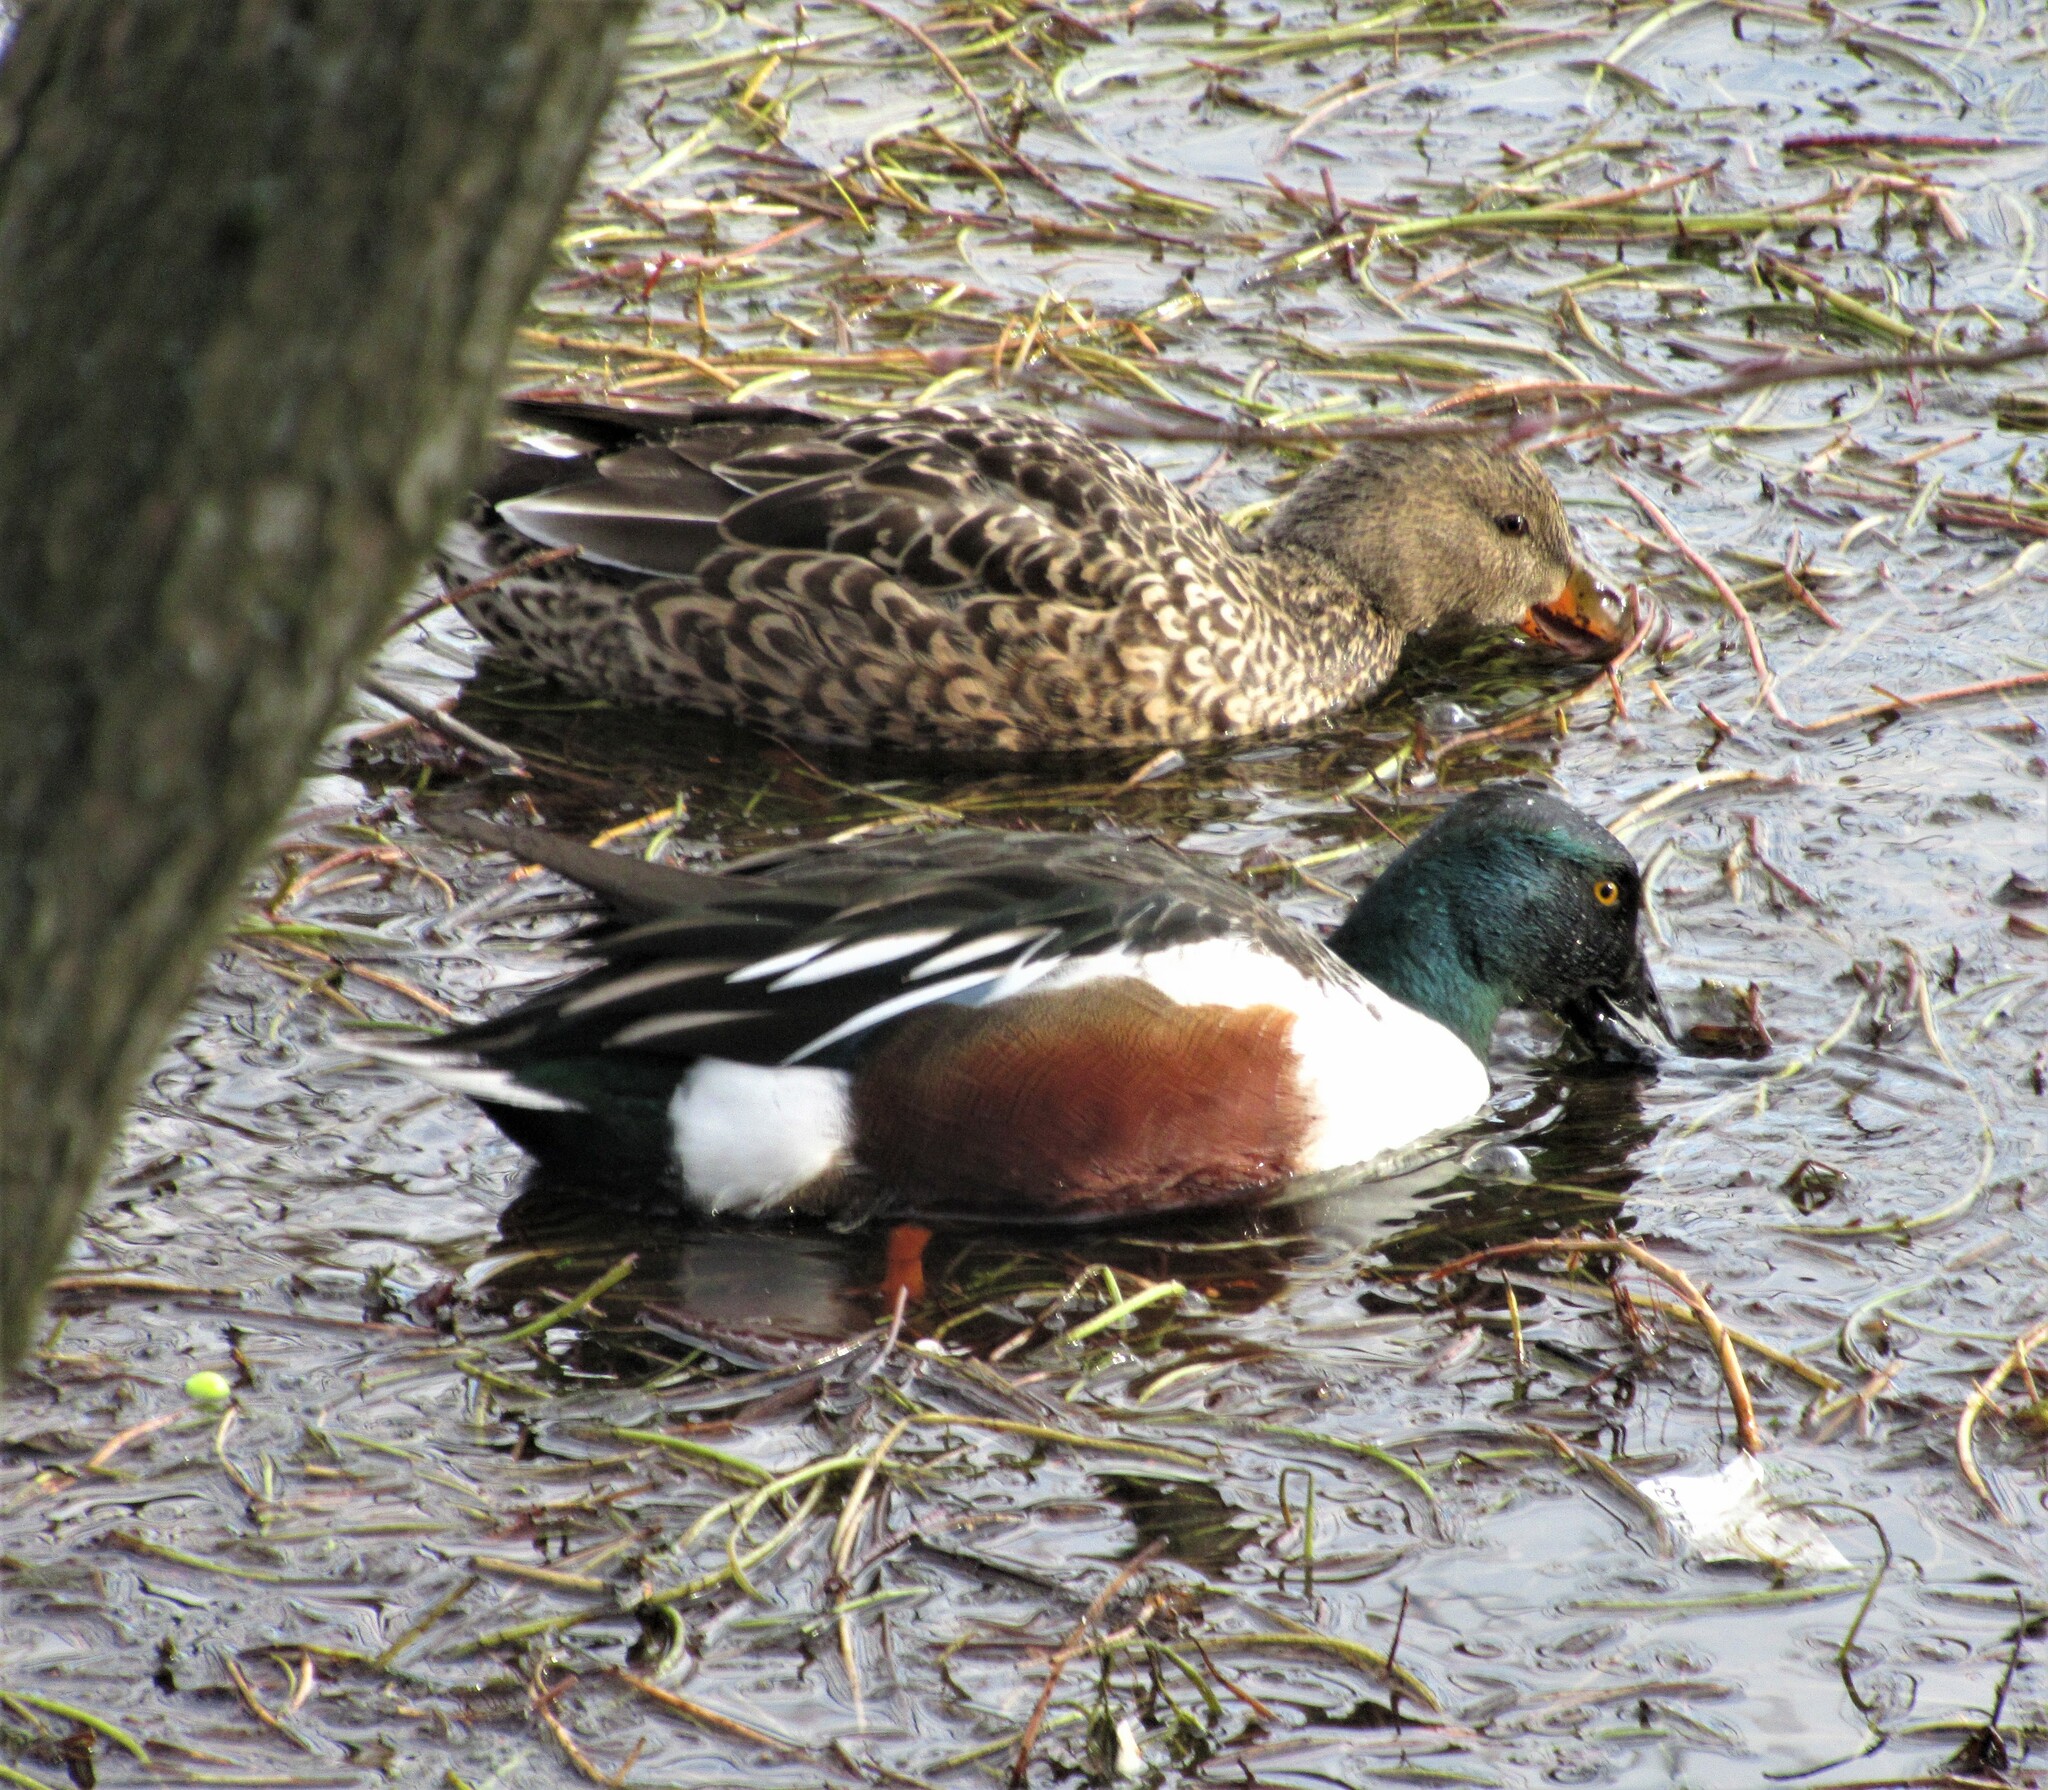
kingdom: Animalia
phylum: Chordata
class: Aves
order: Anseriformes
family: Anatidae
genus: Spatula
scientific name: Spatula clypeata
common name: Northern shoveler
